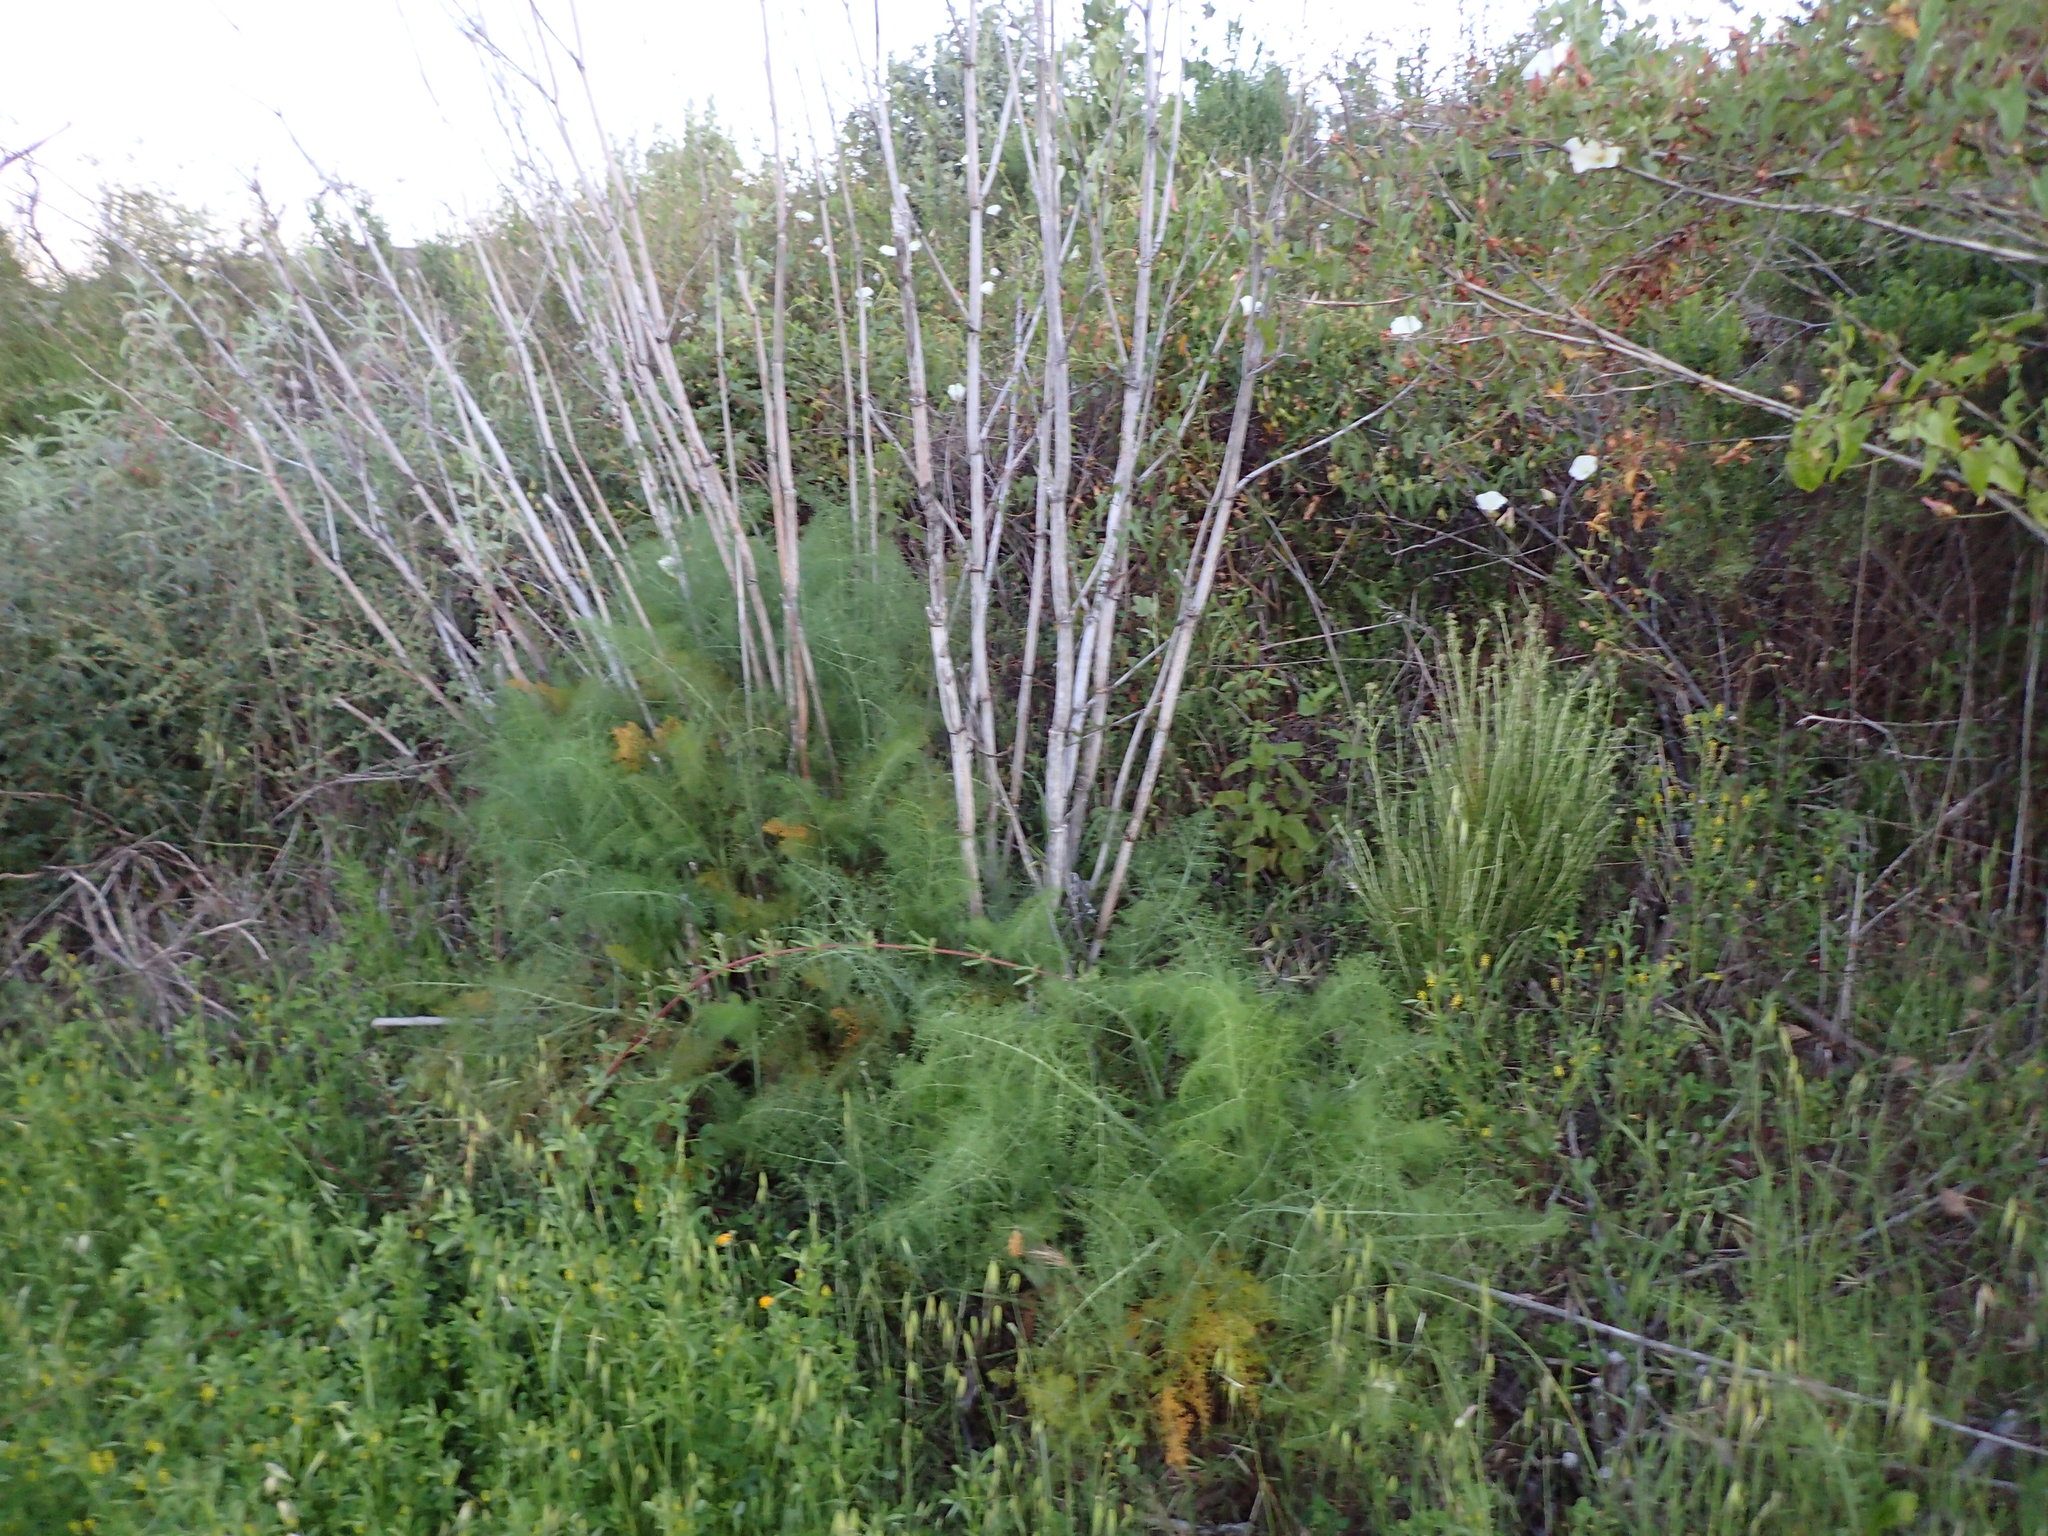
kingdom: Plantae
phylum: Tracheophyta
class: Magnoliopsida
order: Apiales
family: Apiaceae
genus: Foeniculum
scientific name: Foeniculum vulgare
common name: Fennel
